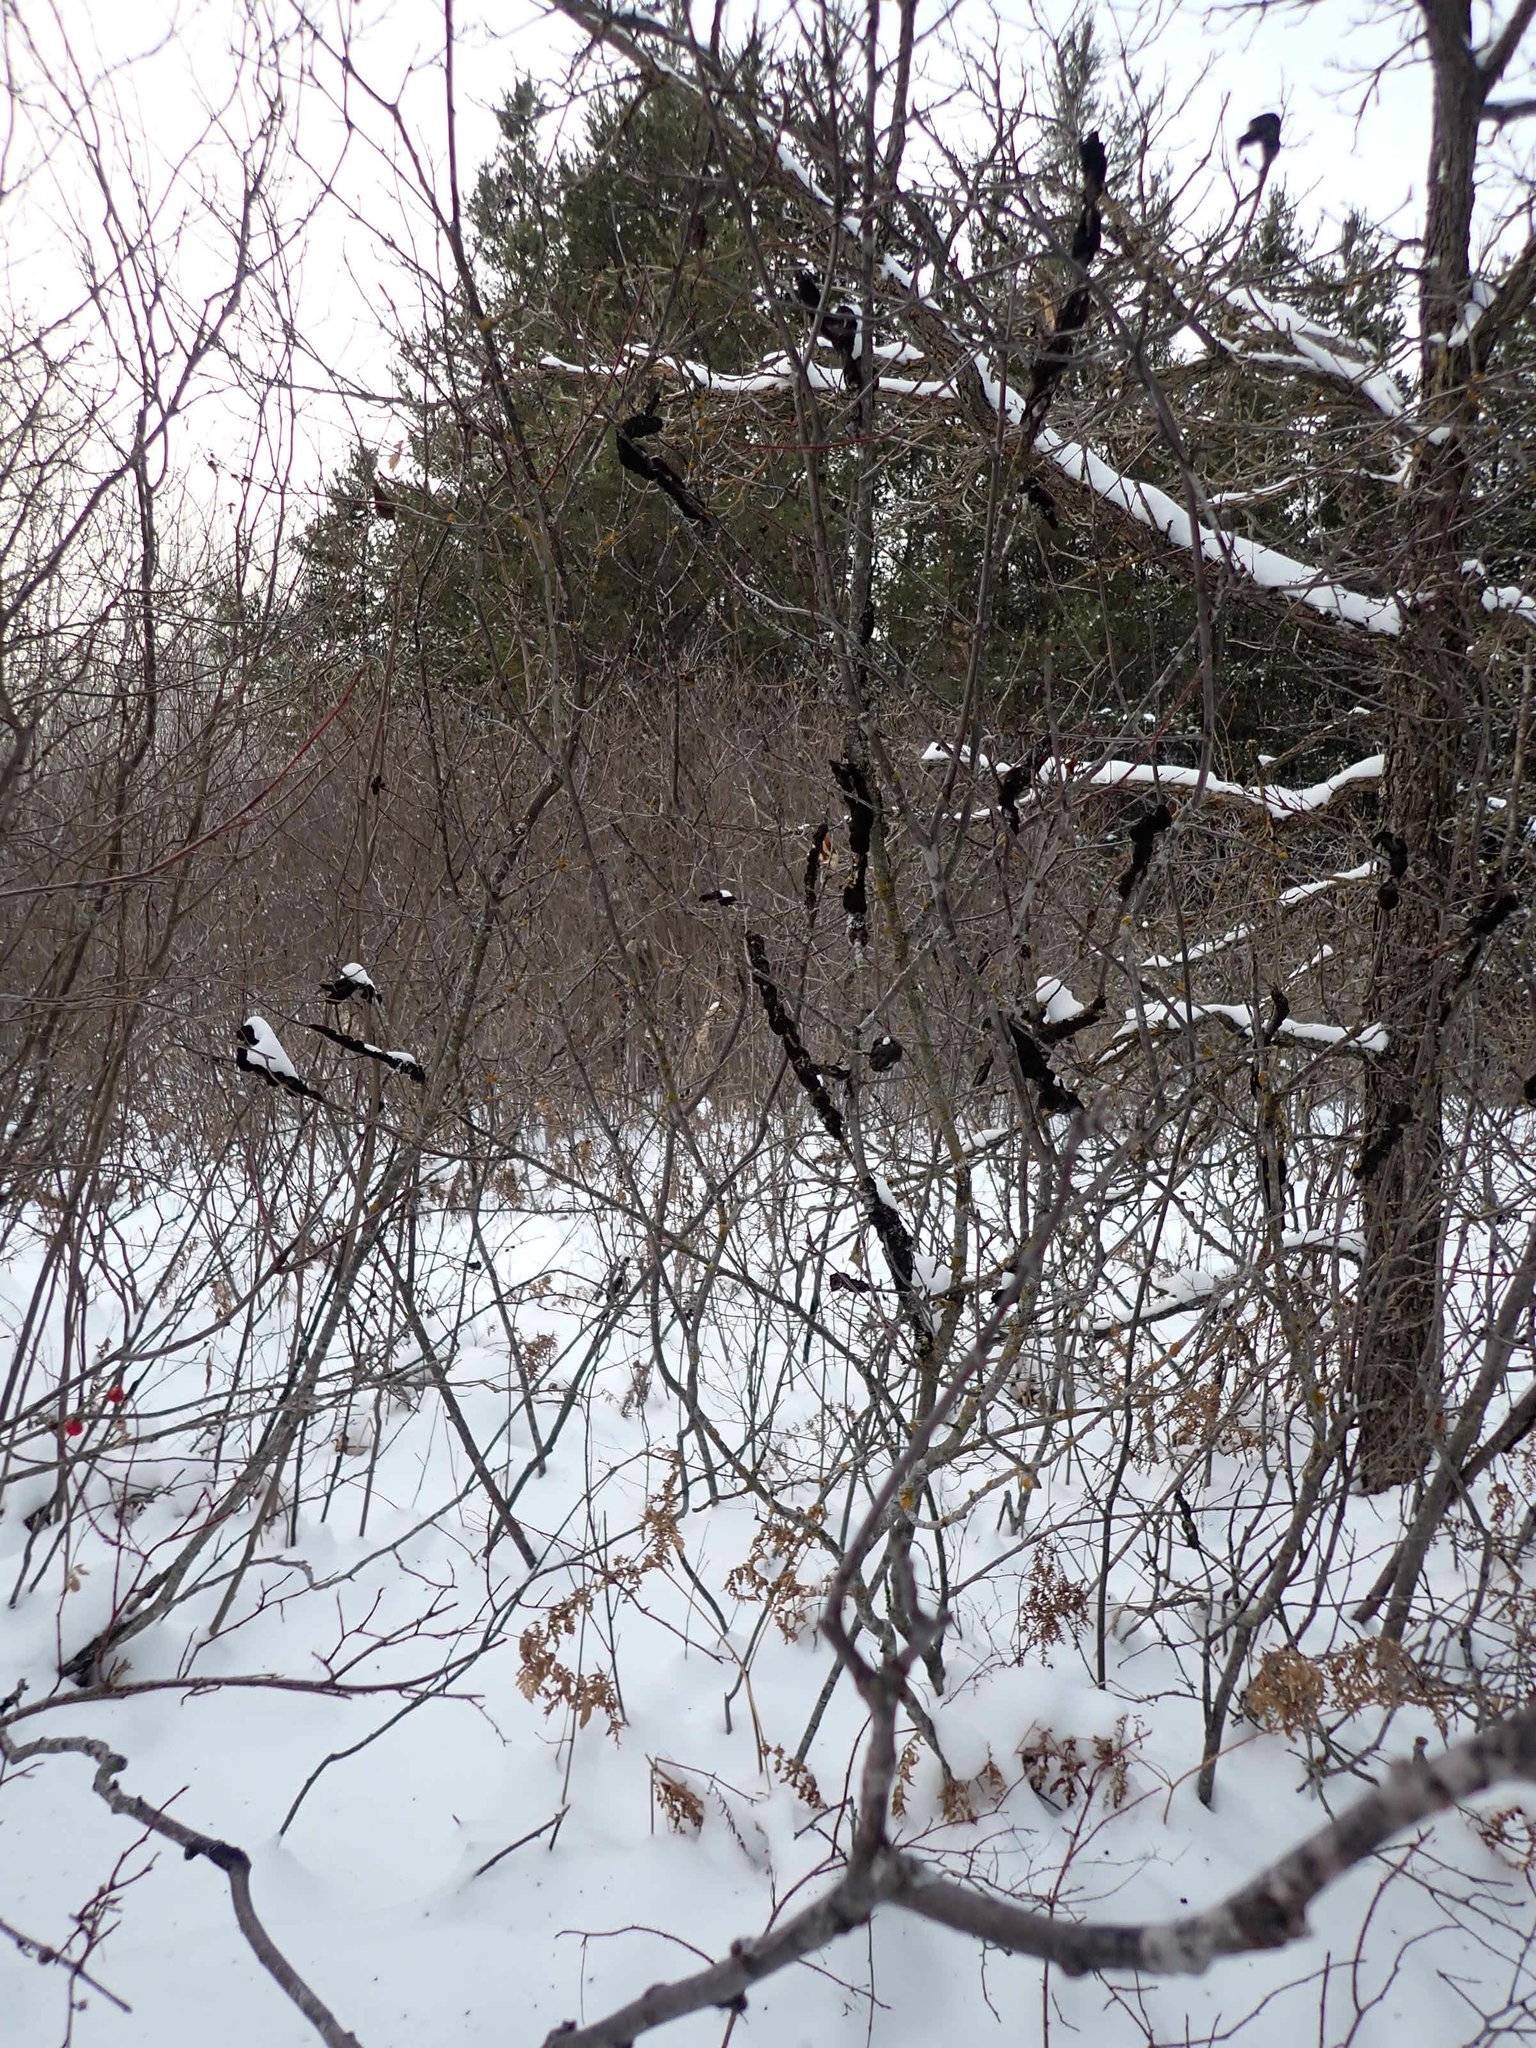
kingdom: Fungi
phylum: Ascomycota
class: Dothideomycetes
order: Venturiales
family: Venturiaceae
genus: Apiosporina
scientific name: Apiosporina morbosa
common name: Black knot
